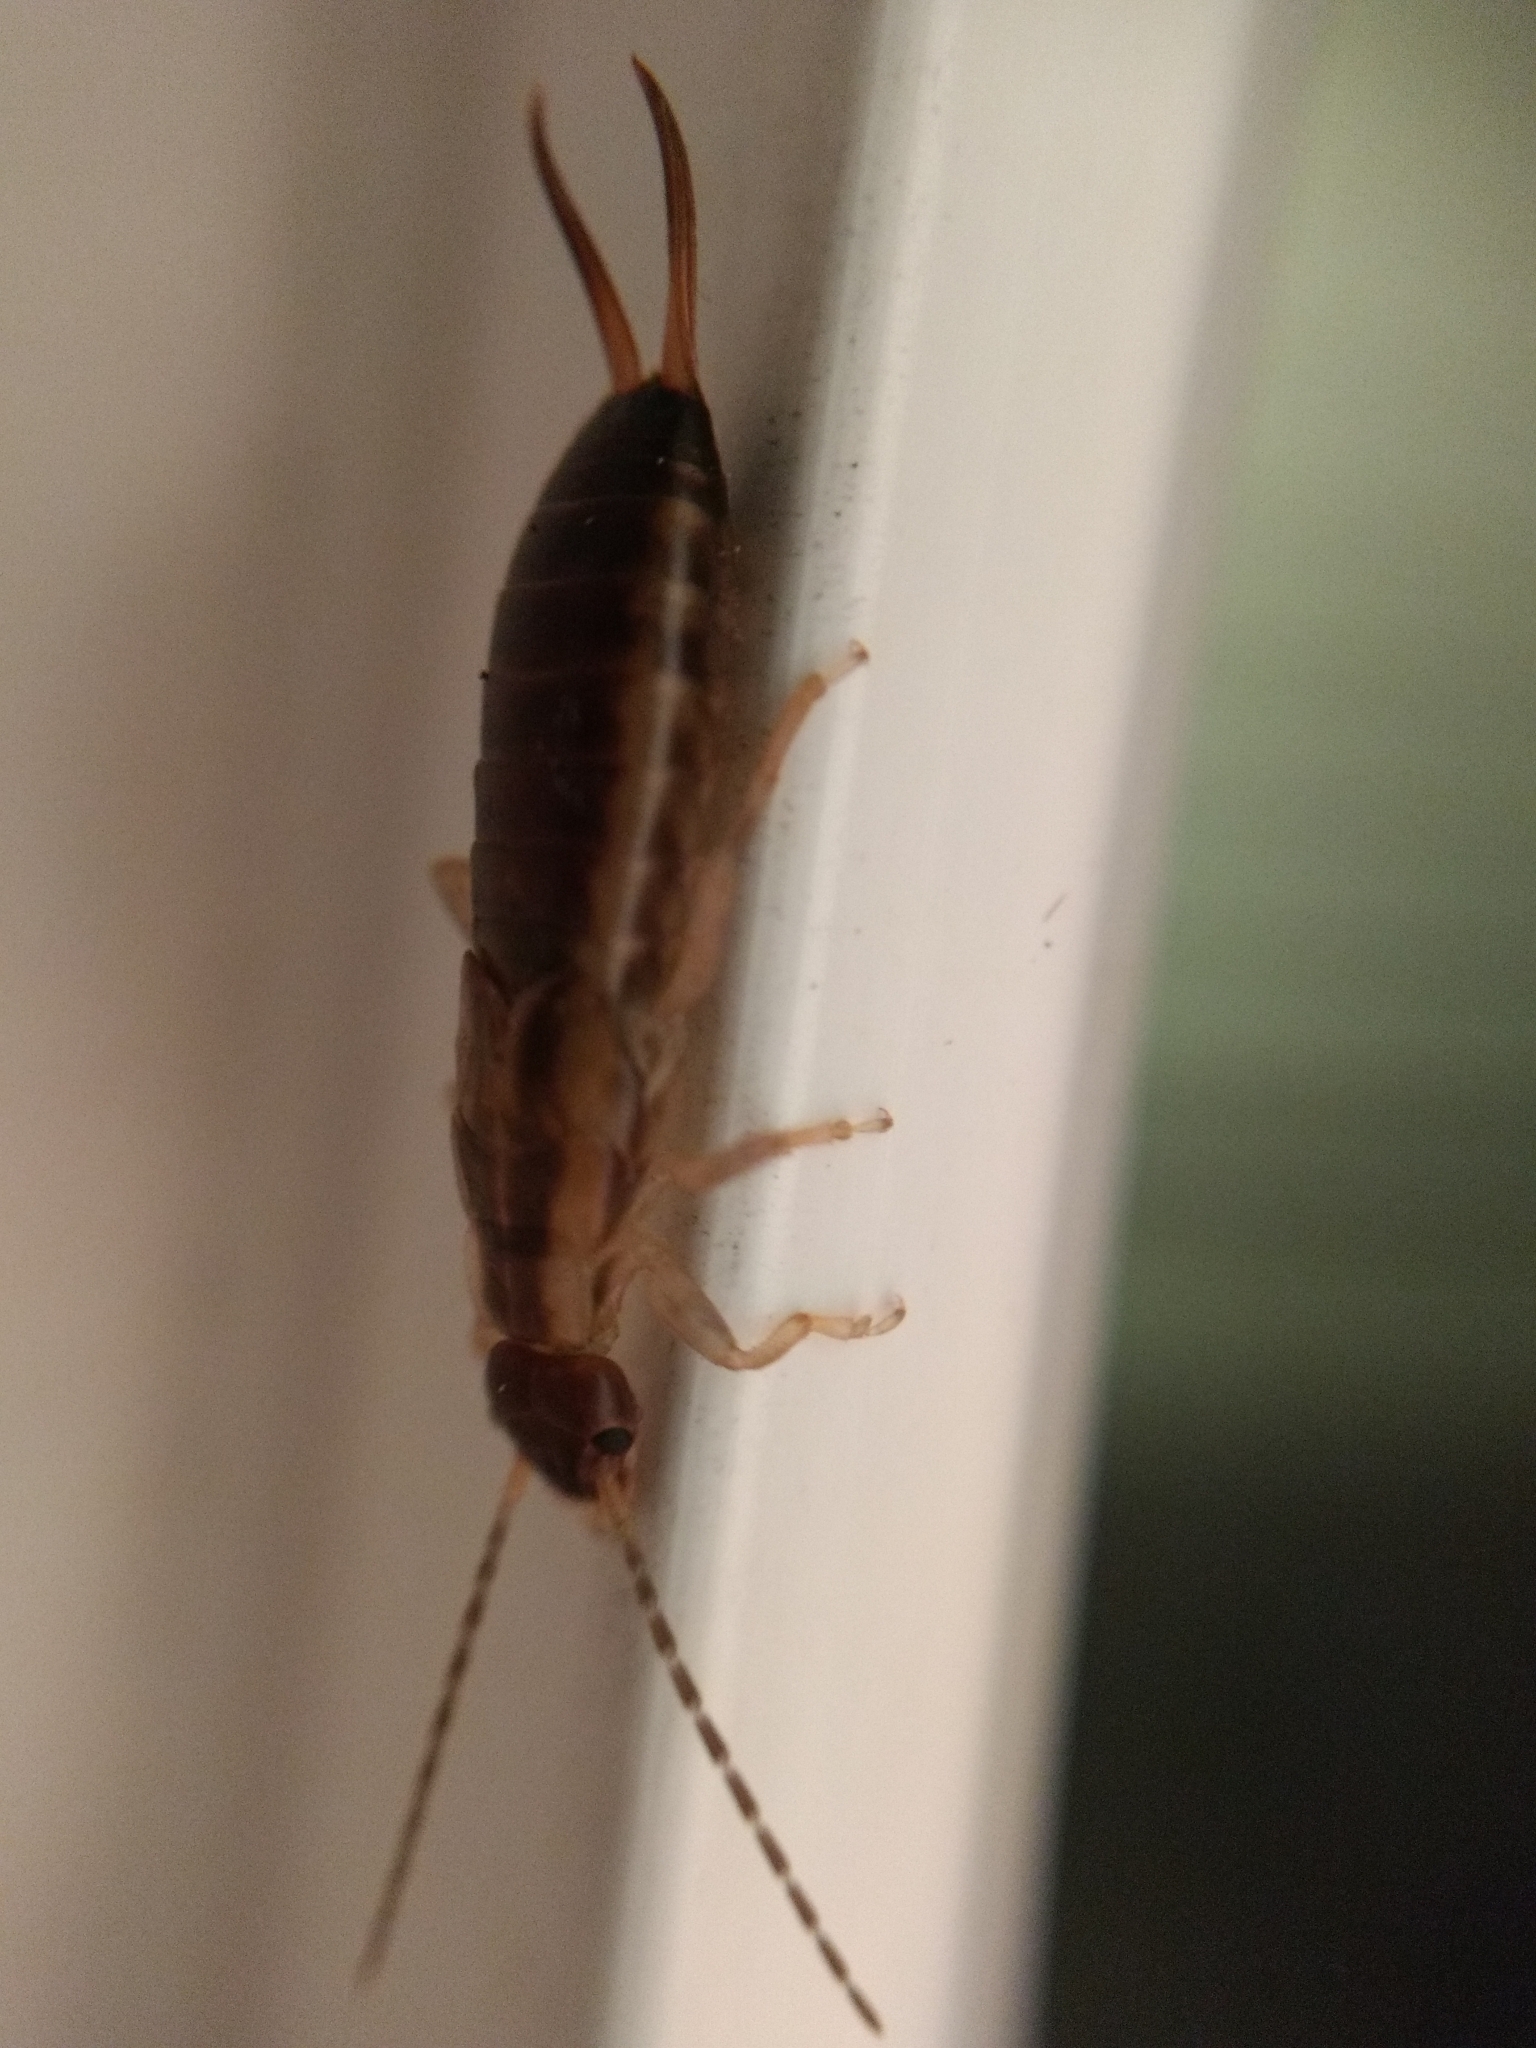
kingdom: Animalia
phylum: Arthropoda
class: Insecta
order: Dermaptera
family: Forficulidae
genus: Forficula
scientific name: Forficula
